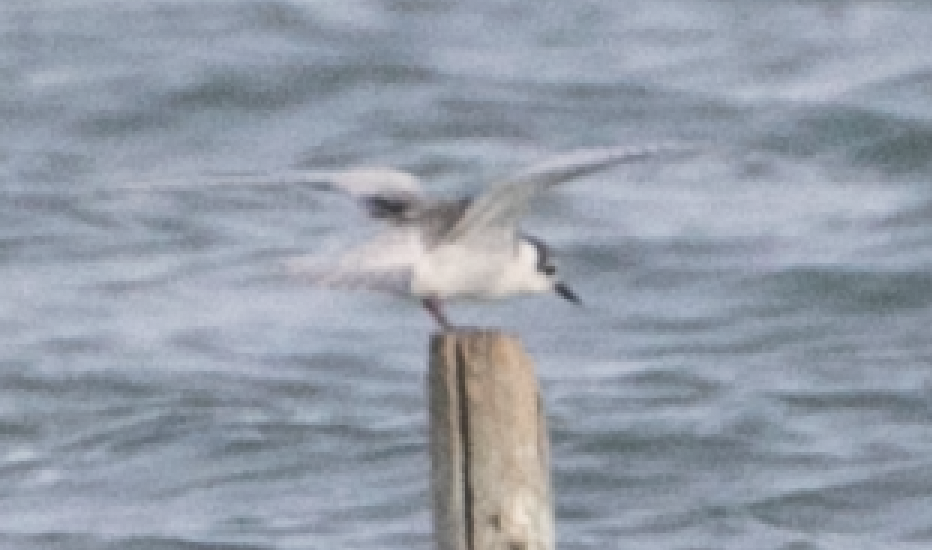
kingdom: Animalia
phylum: Chordata
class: Aves
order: Charadriiformes
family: Laridae
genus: Chlidonias
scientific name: Chlidonias hybrida
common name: Whiskered tern
